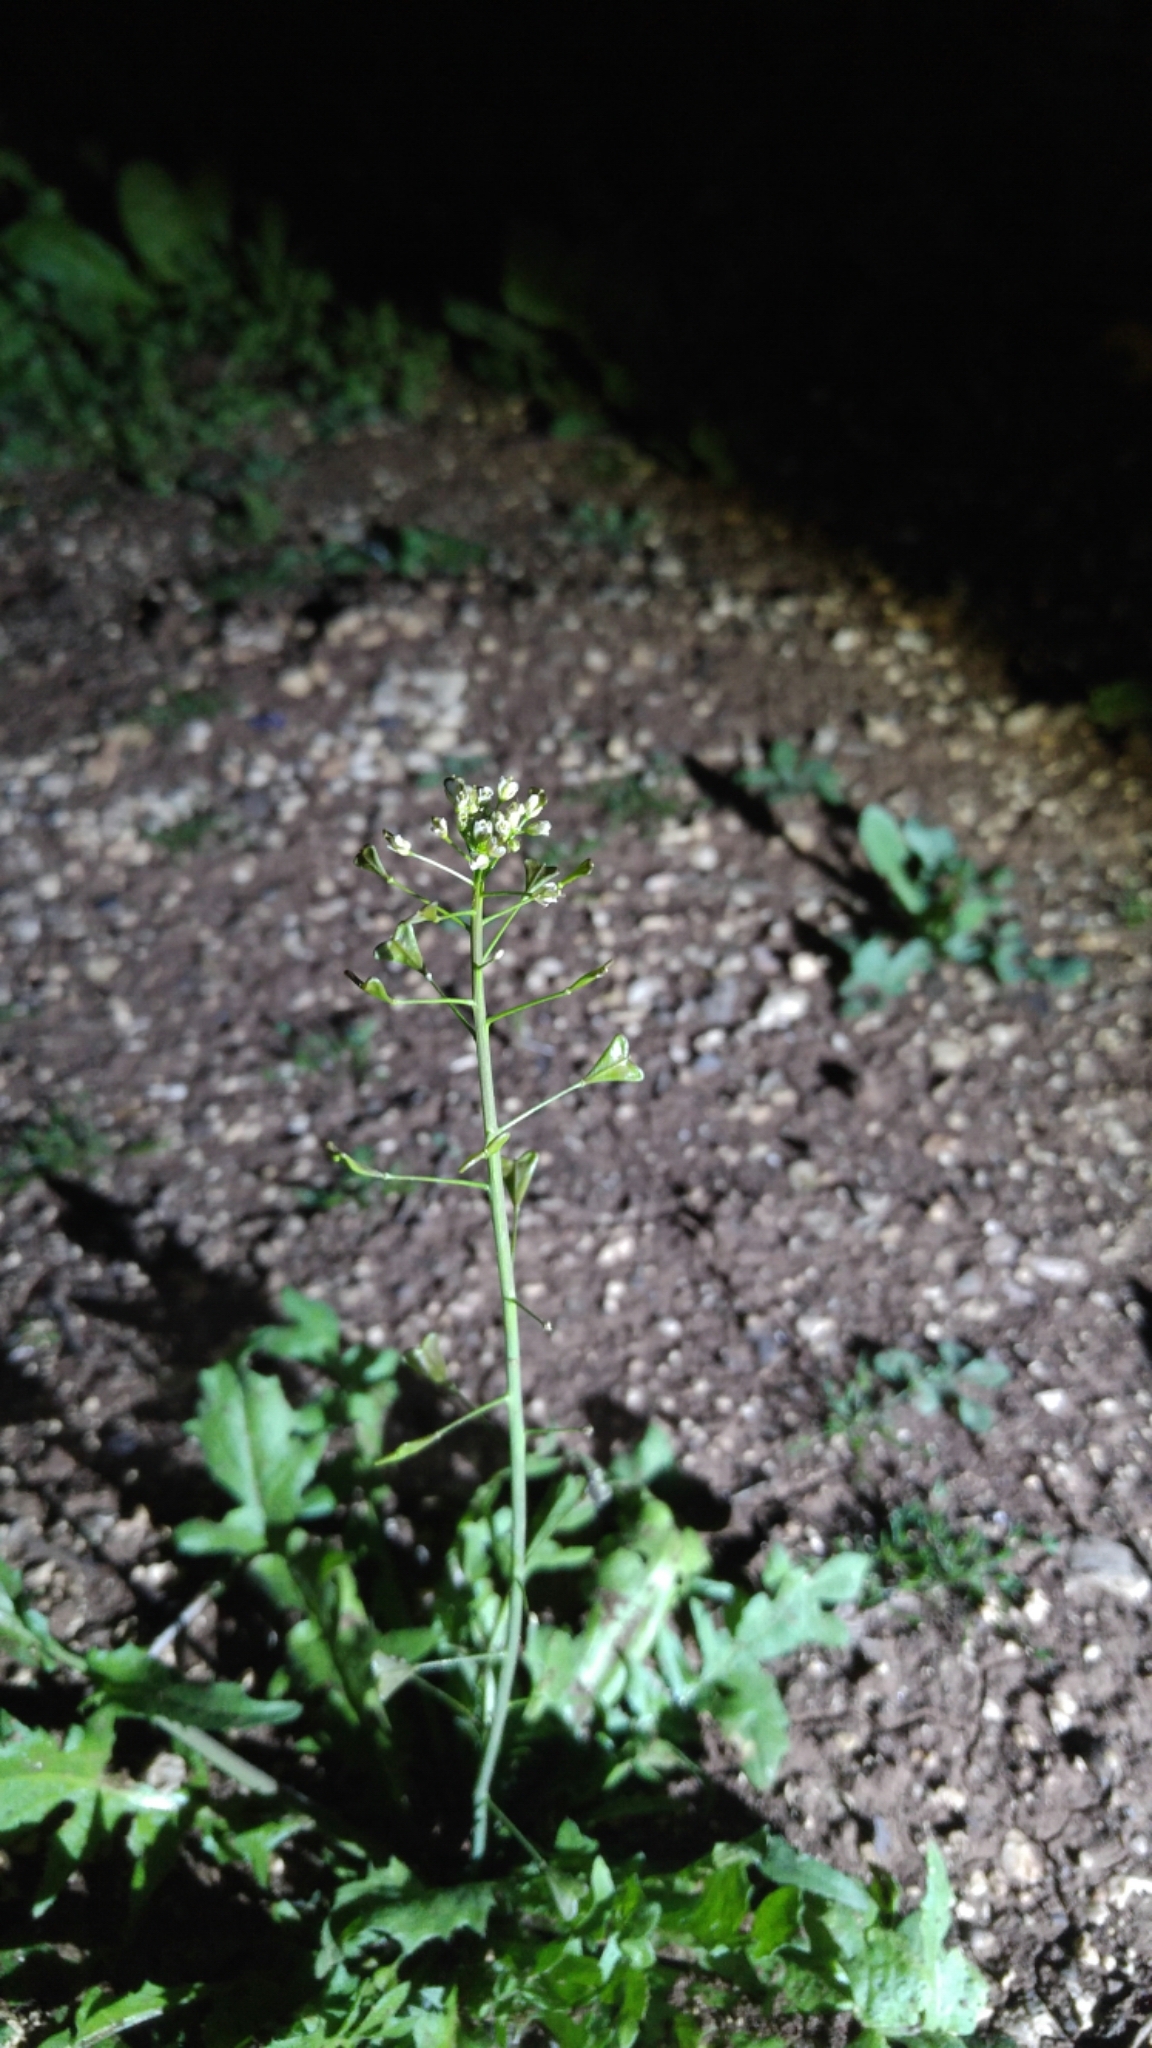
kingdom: Plantae
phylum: Tracheophyta
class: Magnoliopsida
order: Brassicales
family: Brassicaceae
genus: Capsella
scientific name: Capsella bursa-pastoris
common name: Shepherd's purse
